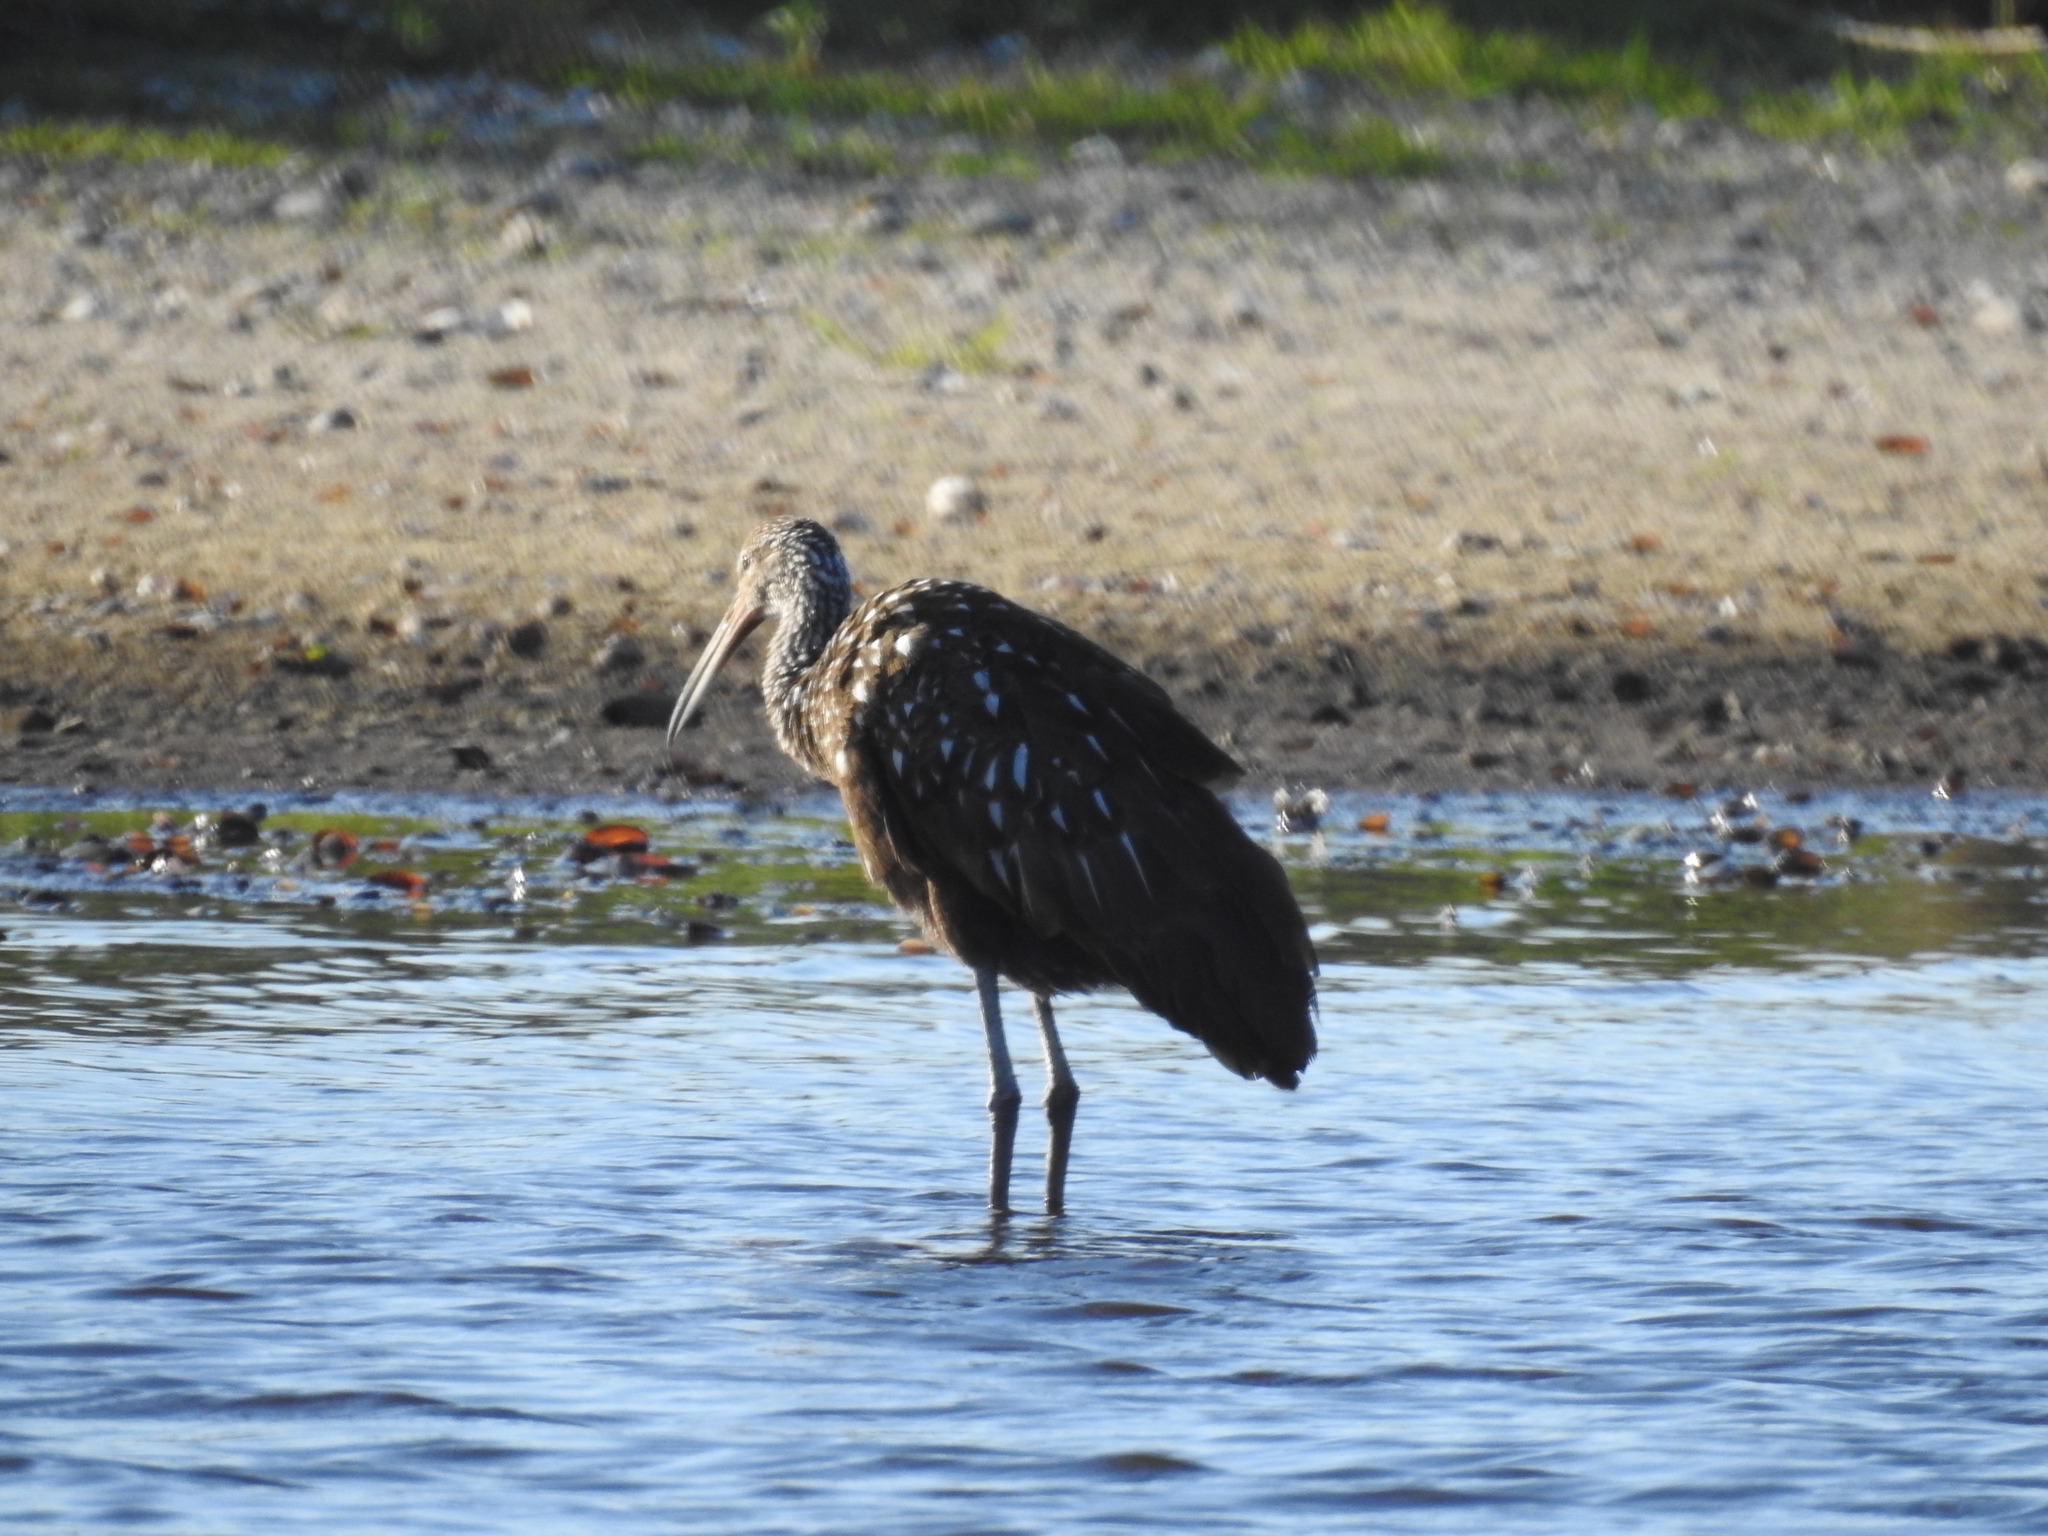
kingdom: Animalia
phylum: Chordata
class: Aves
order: Gruiformes
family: Aramidae
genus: Aramus
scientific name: Aramus guarauna
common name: Limpkin
